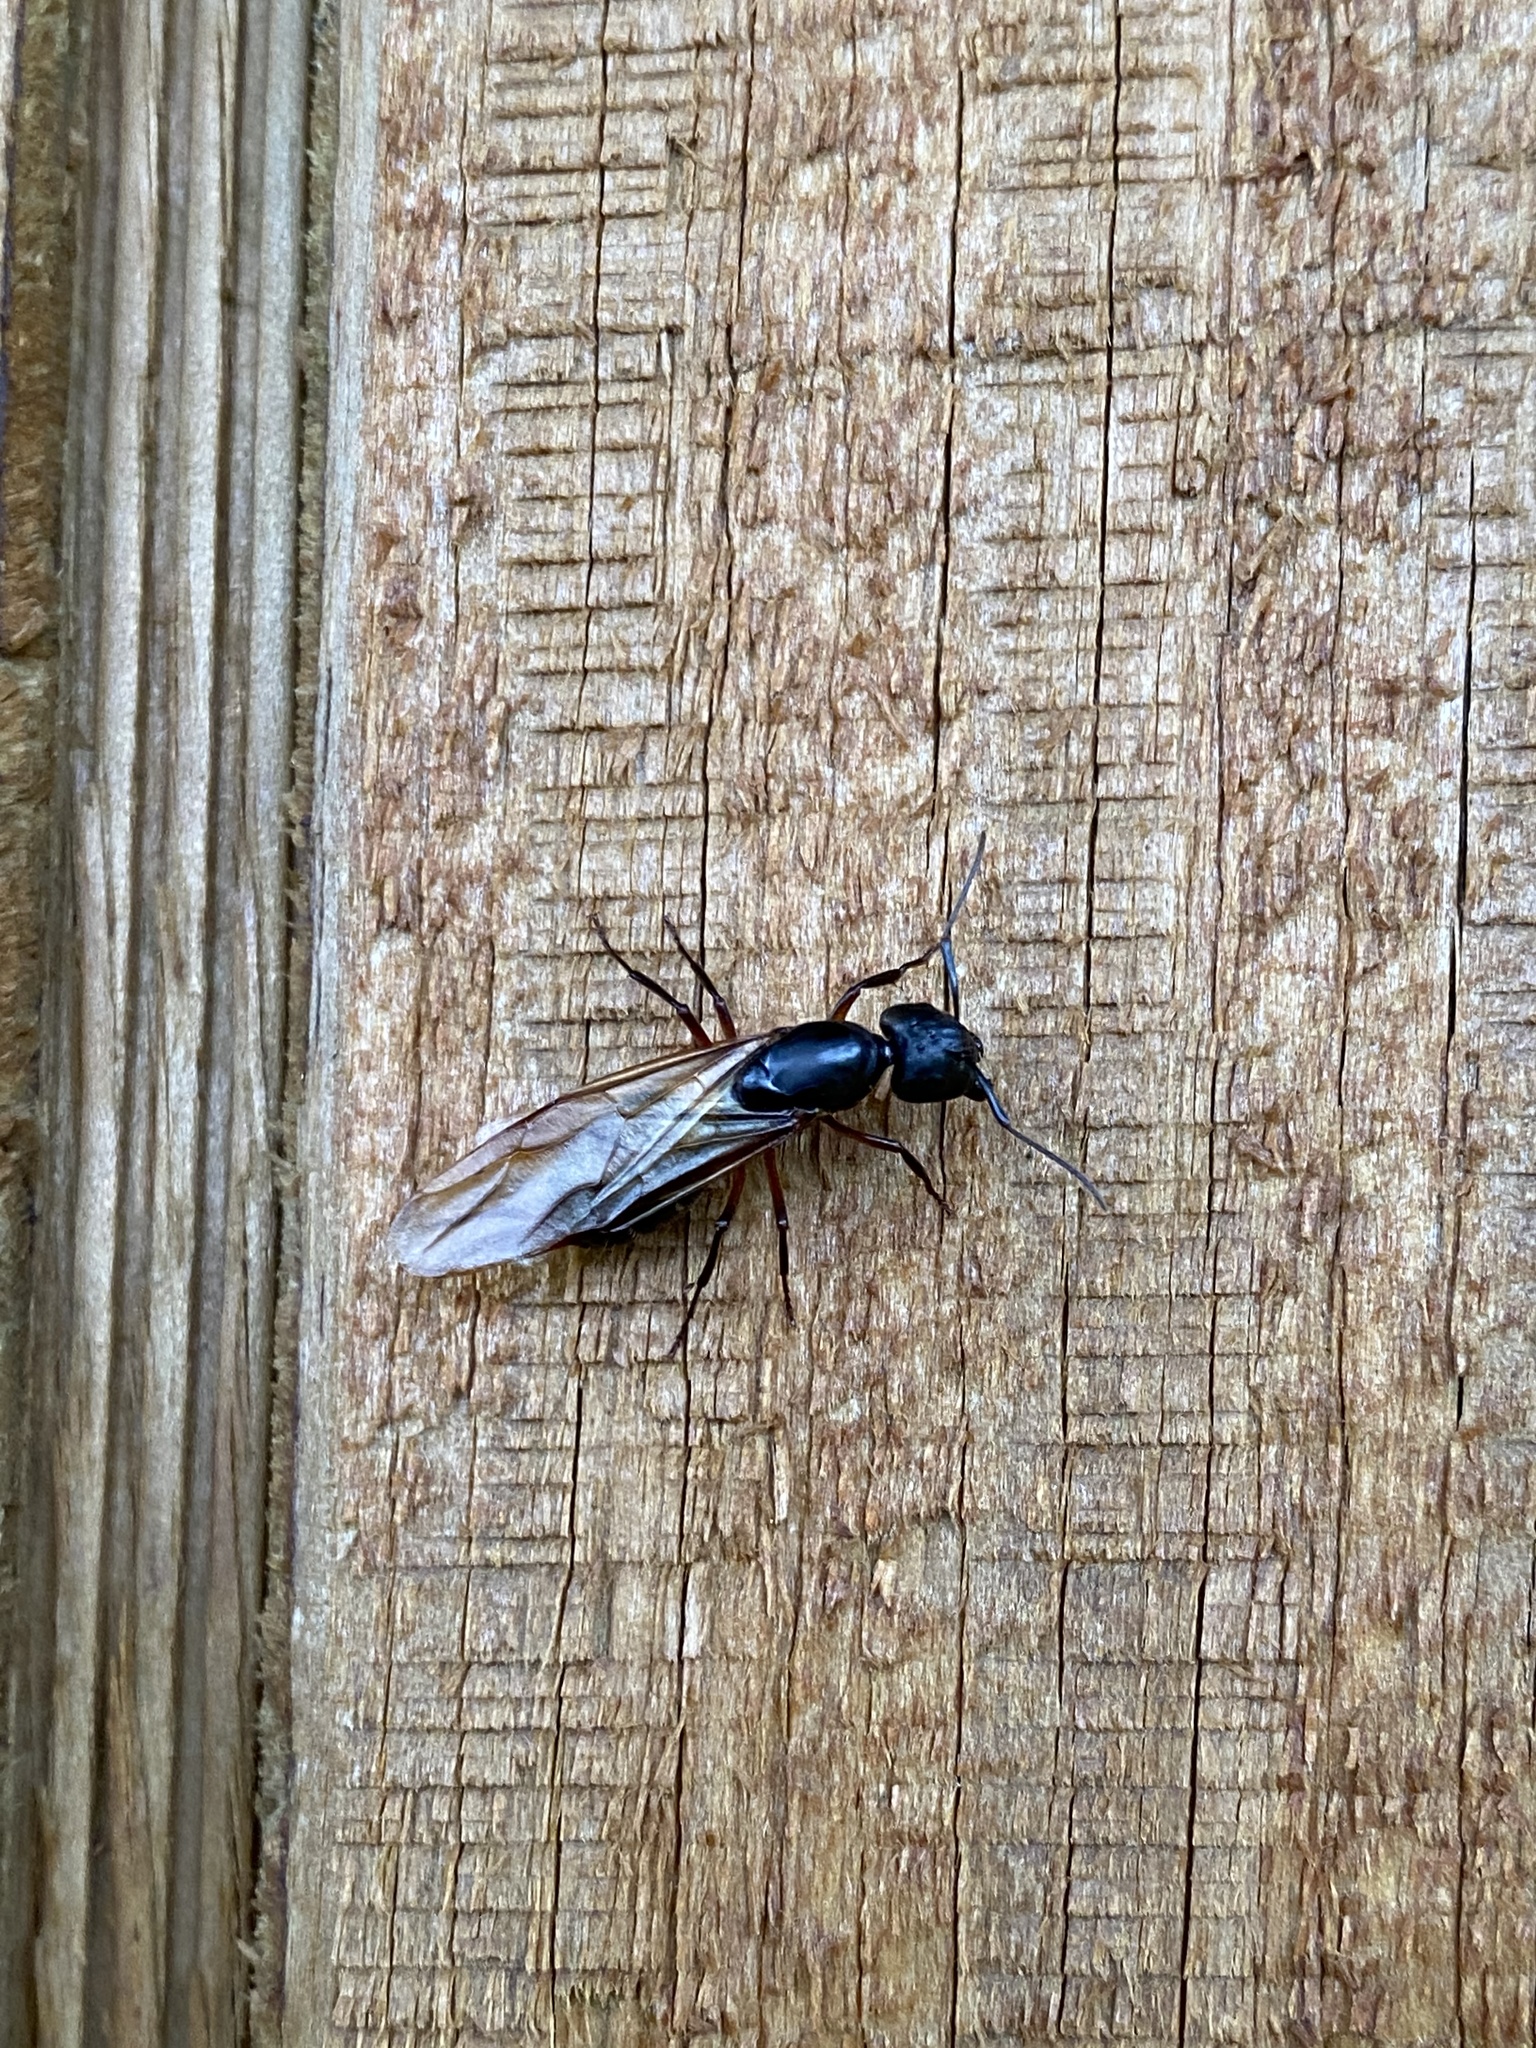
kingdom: Animalia
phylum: Arthropoda
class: Insecta
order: Hymenoptera
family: Formicidae
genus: Camponotus
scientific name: Camponotus chromaiodes
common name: Red carpenter ant
